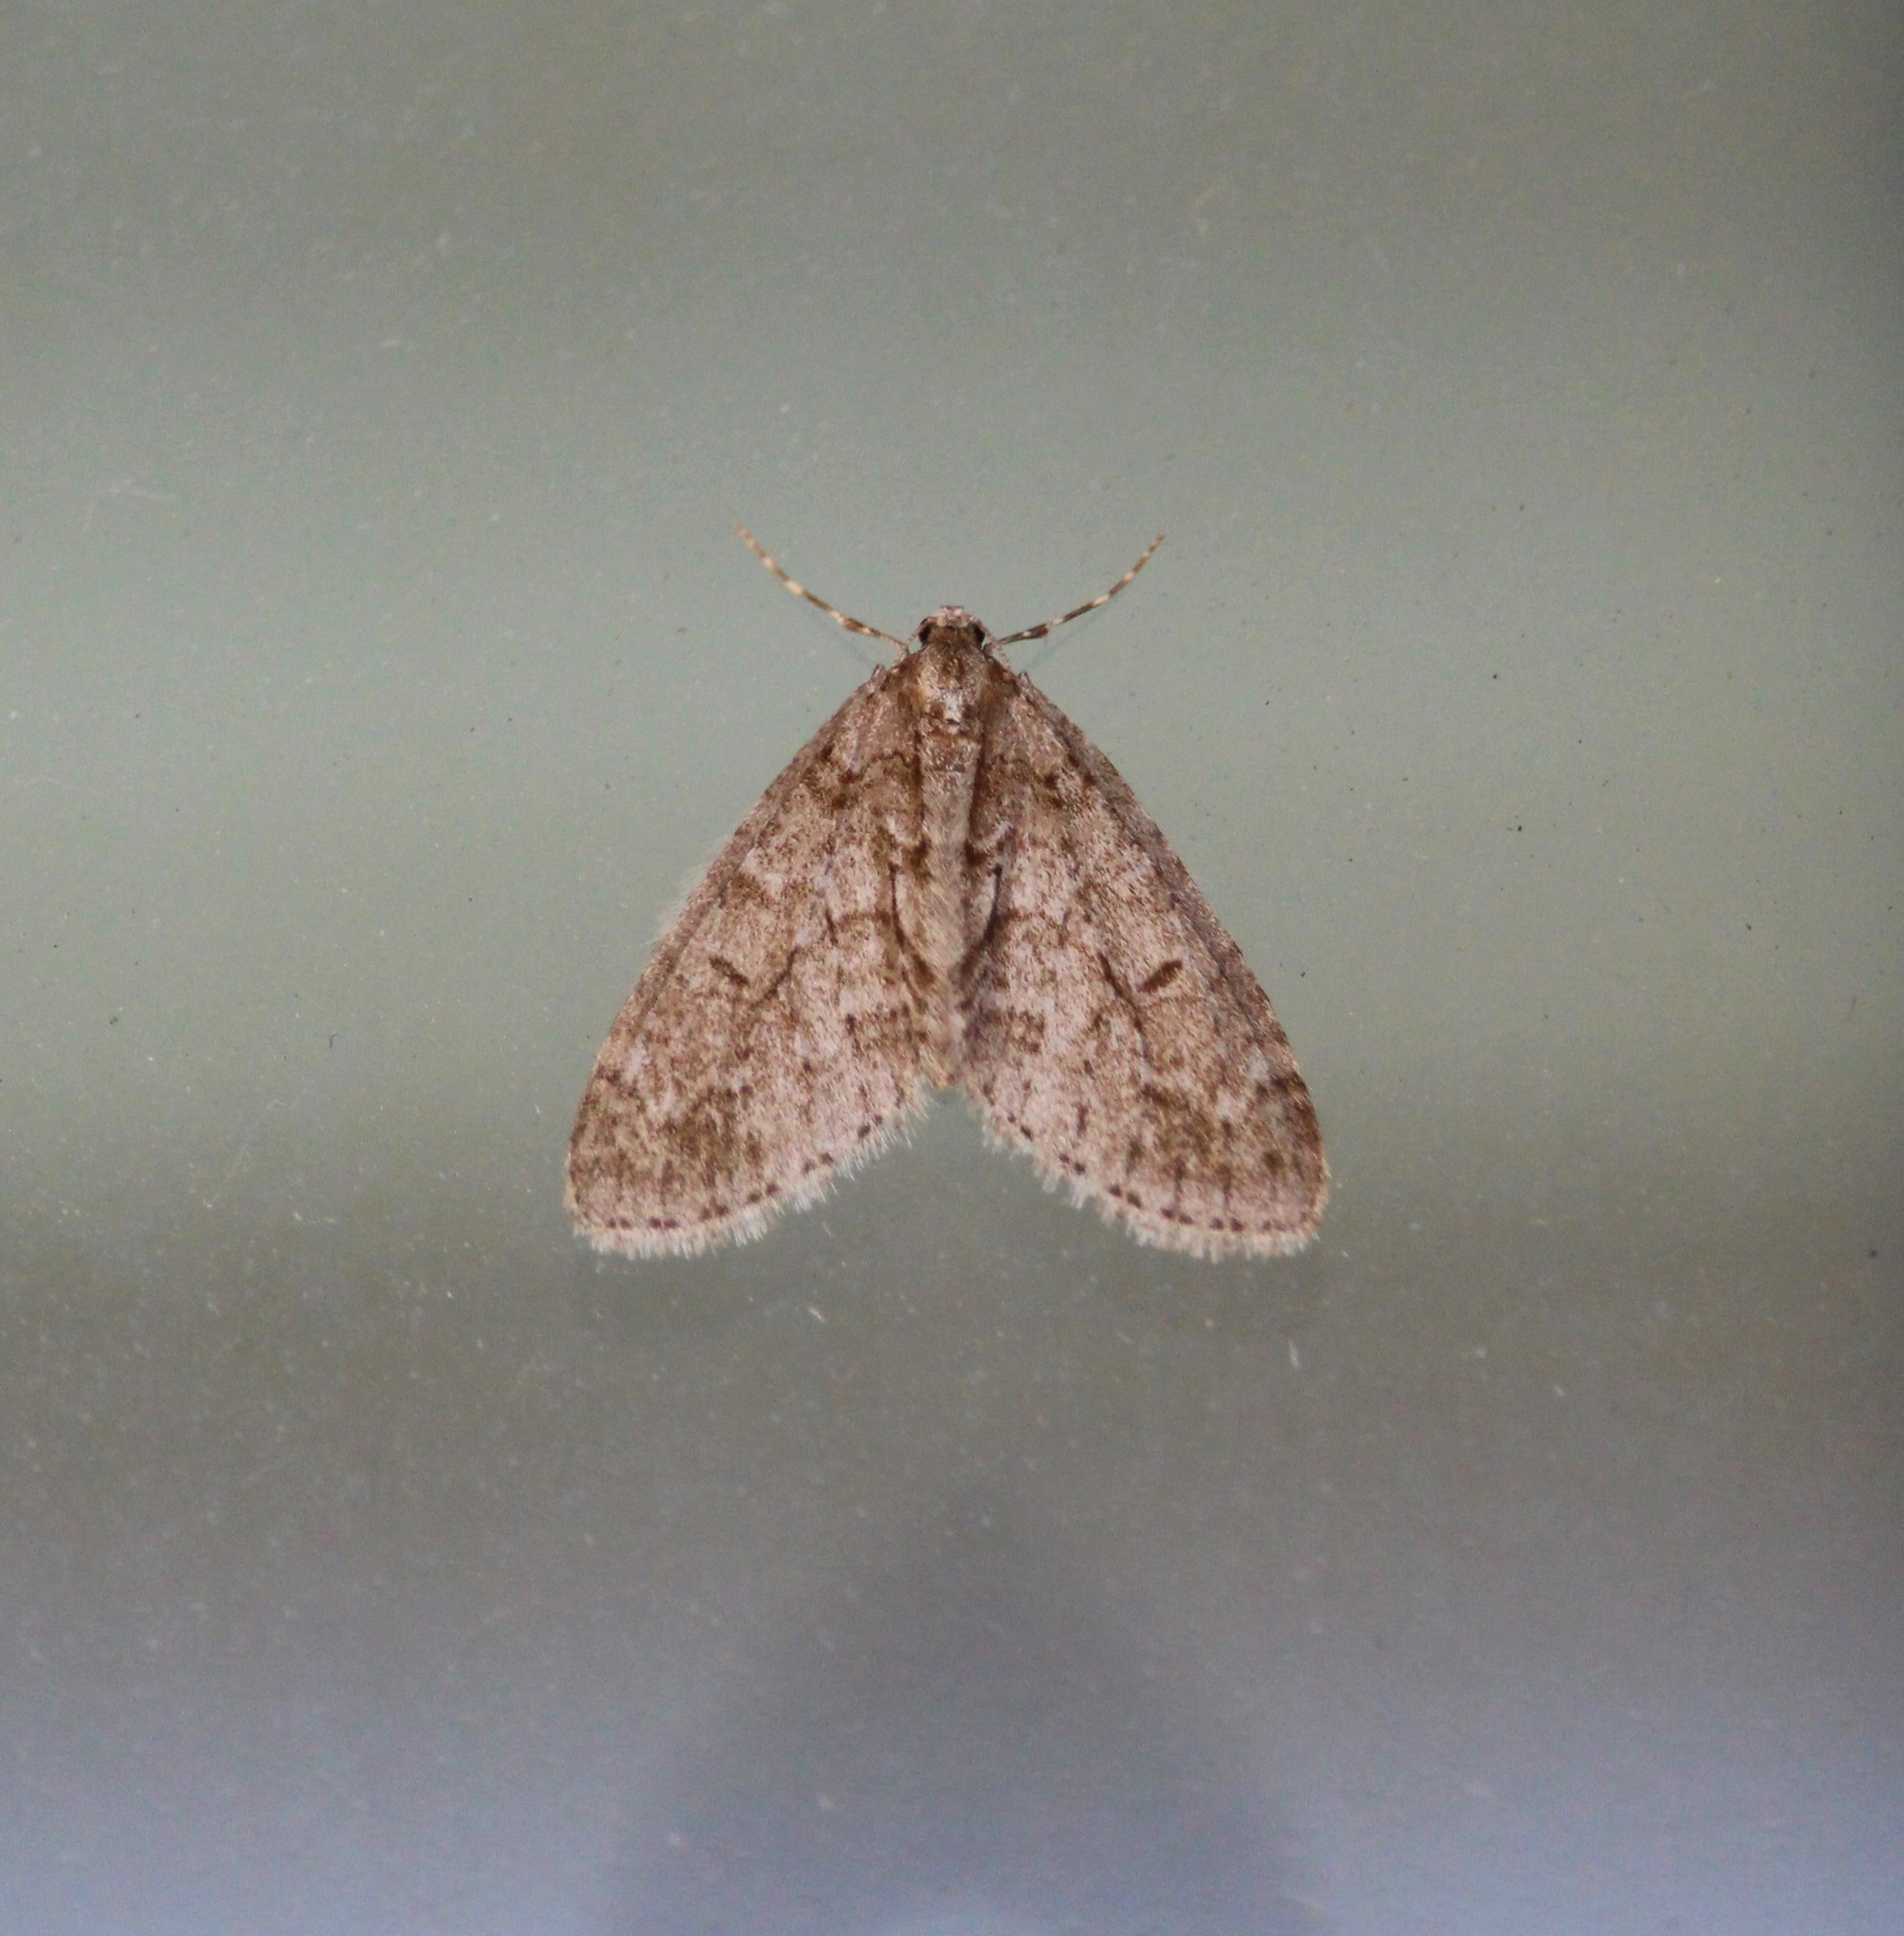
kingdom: Animalia
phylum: Arthropoda
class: Insecta
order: Lepidoptera
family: Geometridae
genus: Cladara
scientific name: Cladara limitaria
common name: Mottled gray carpet
